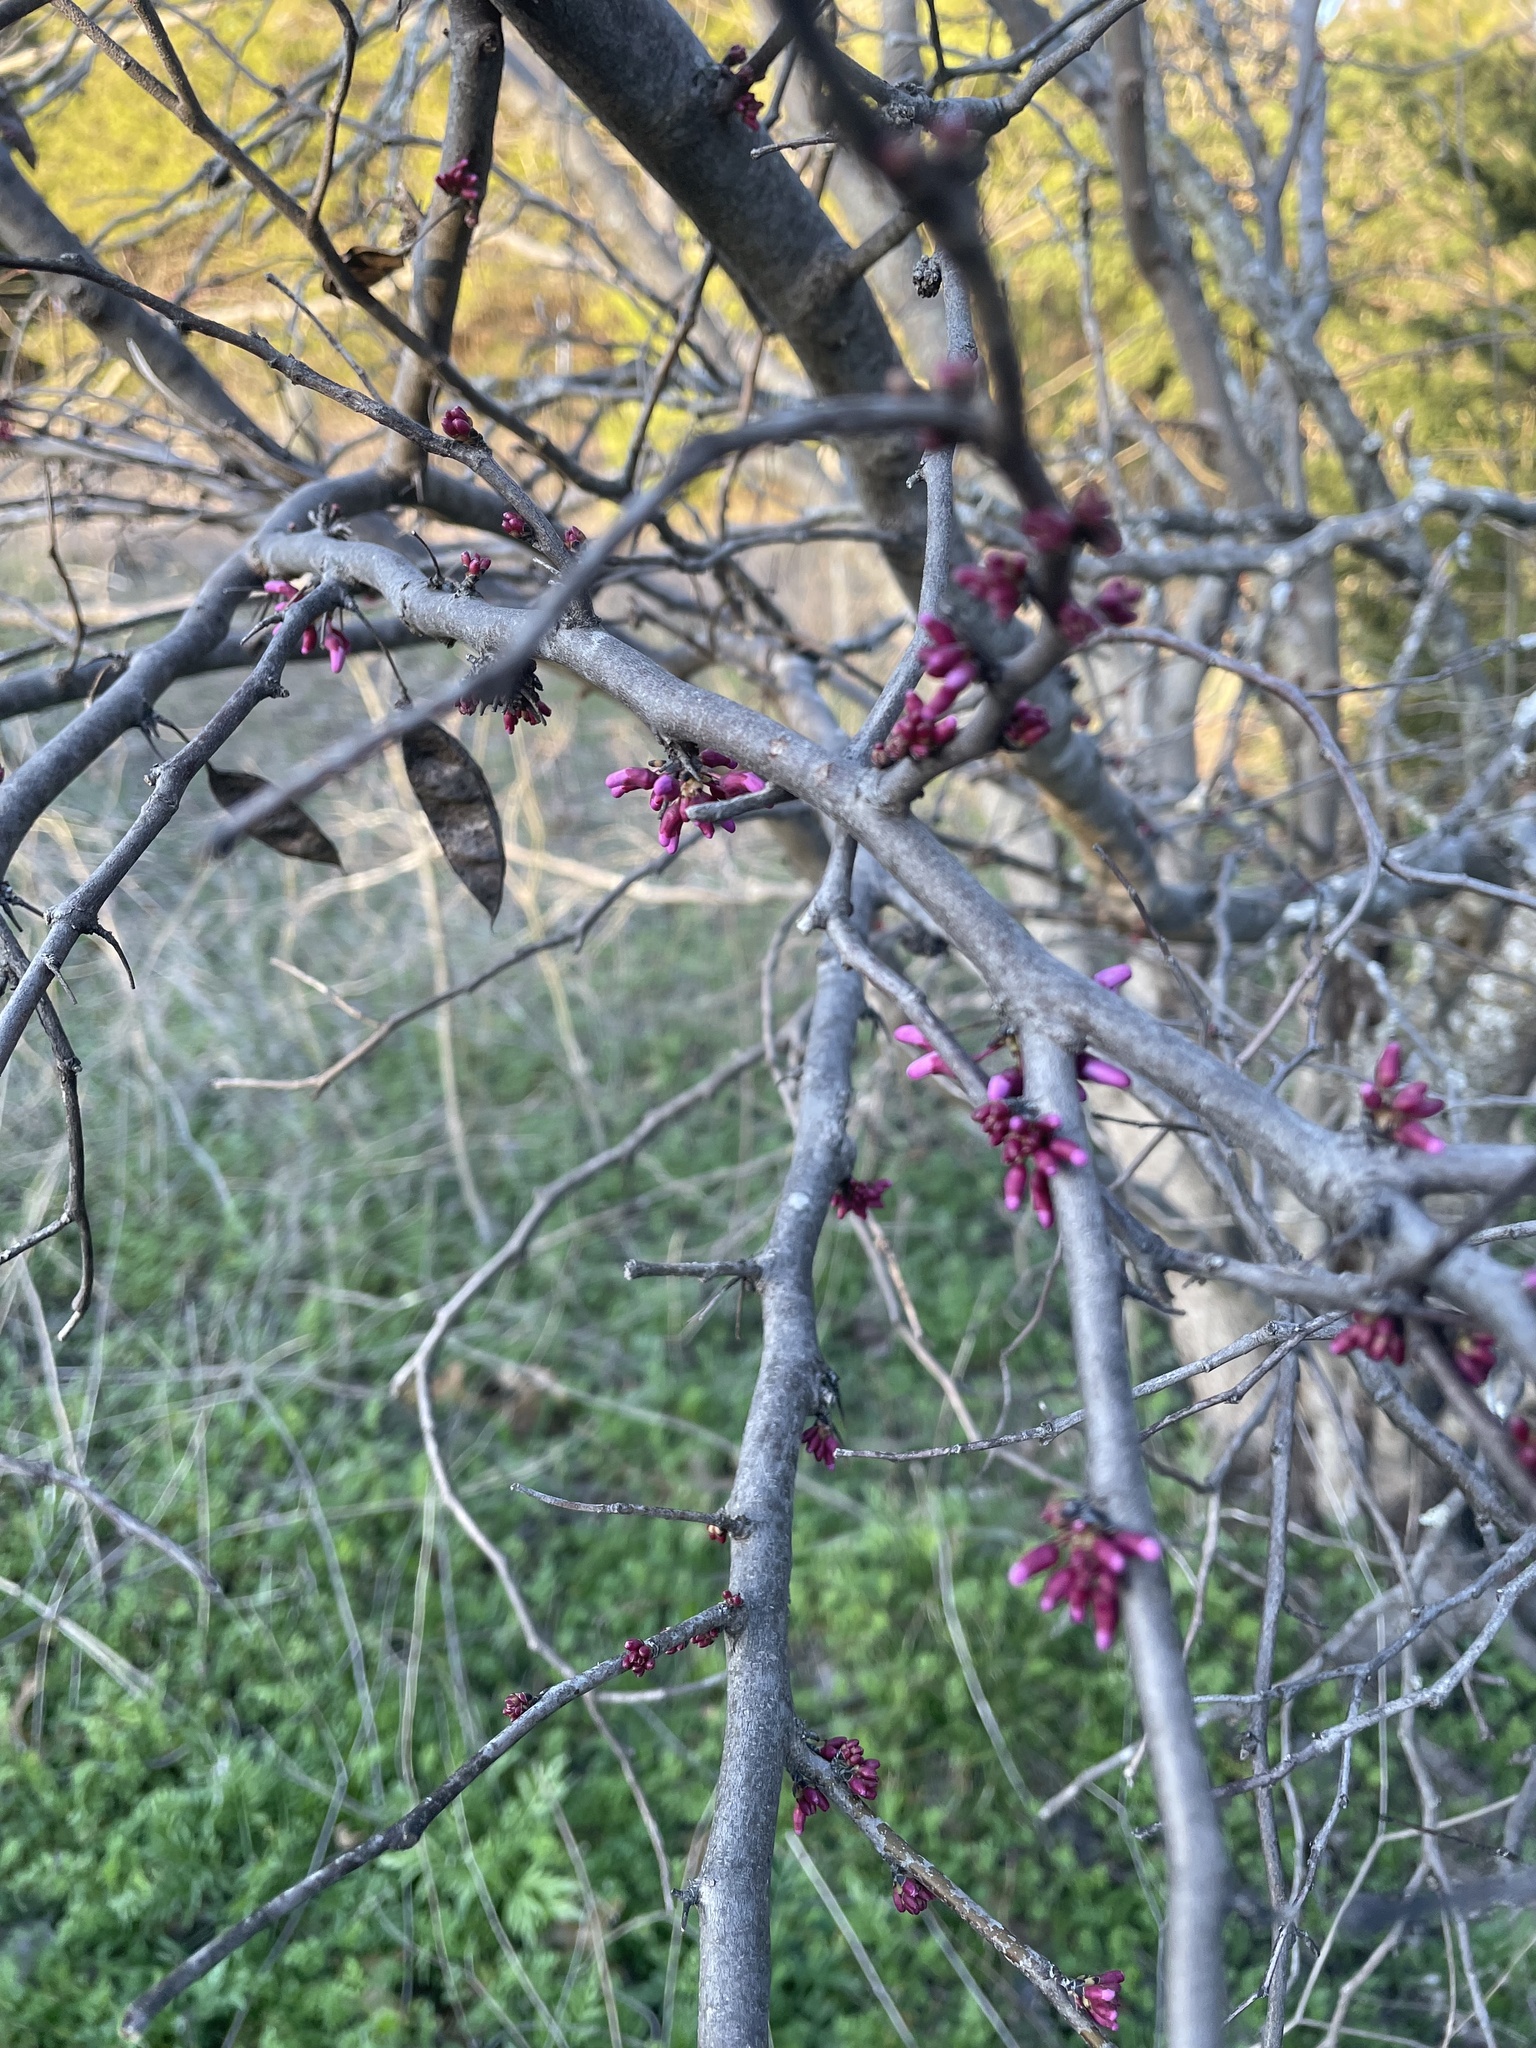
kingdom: Plantae
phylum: Tracheophyta
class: Magnoliopsida
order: Fabales
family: Fabaceae
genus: Cercis
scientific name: Cercis canadensis
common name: Eastern redbud
